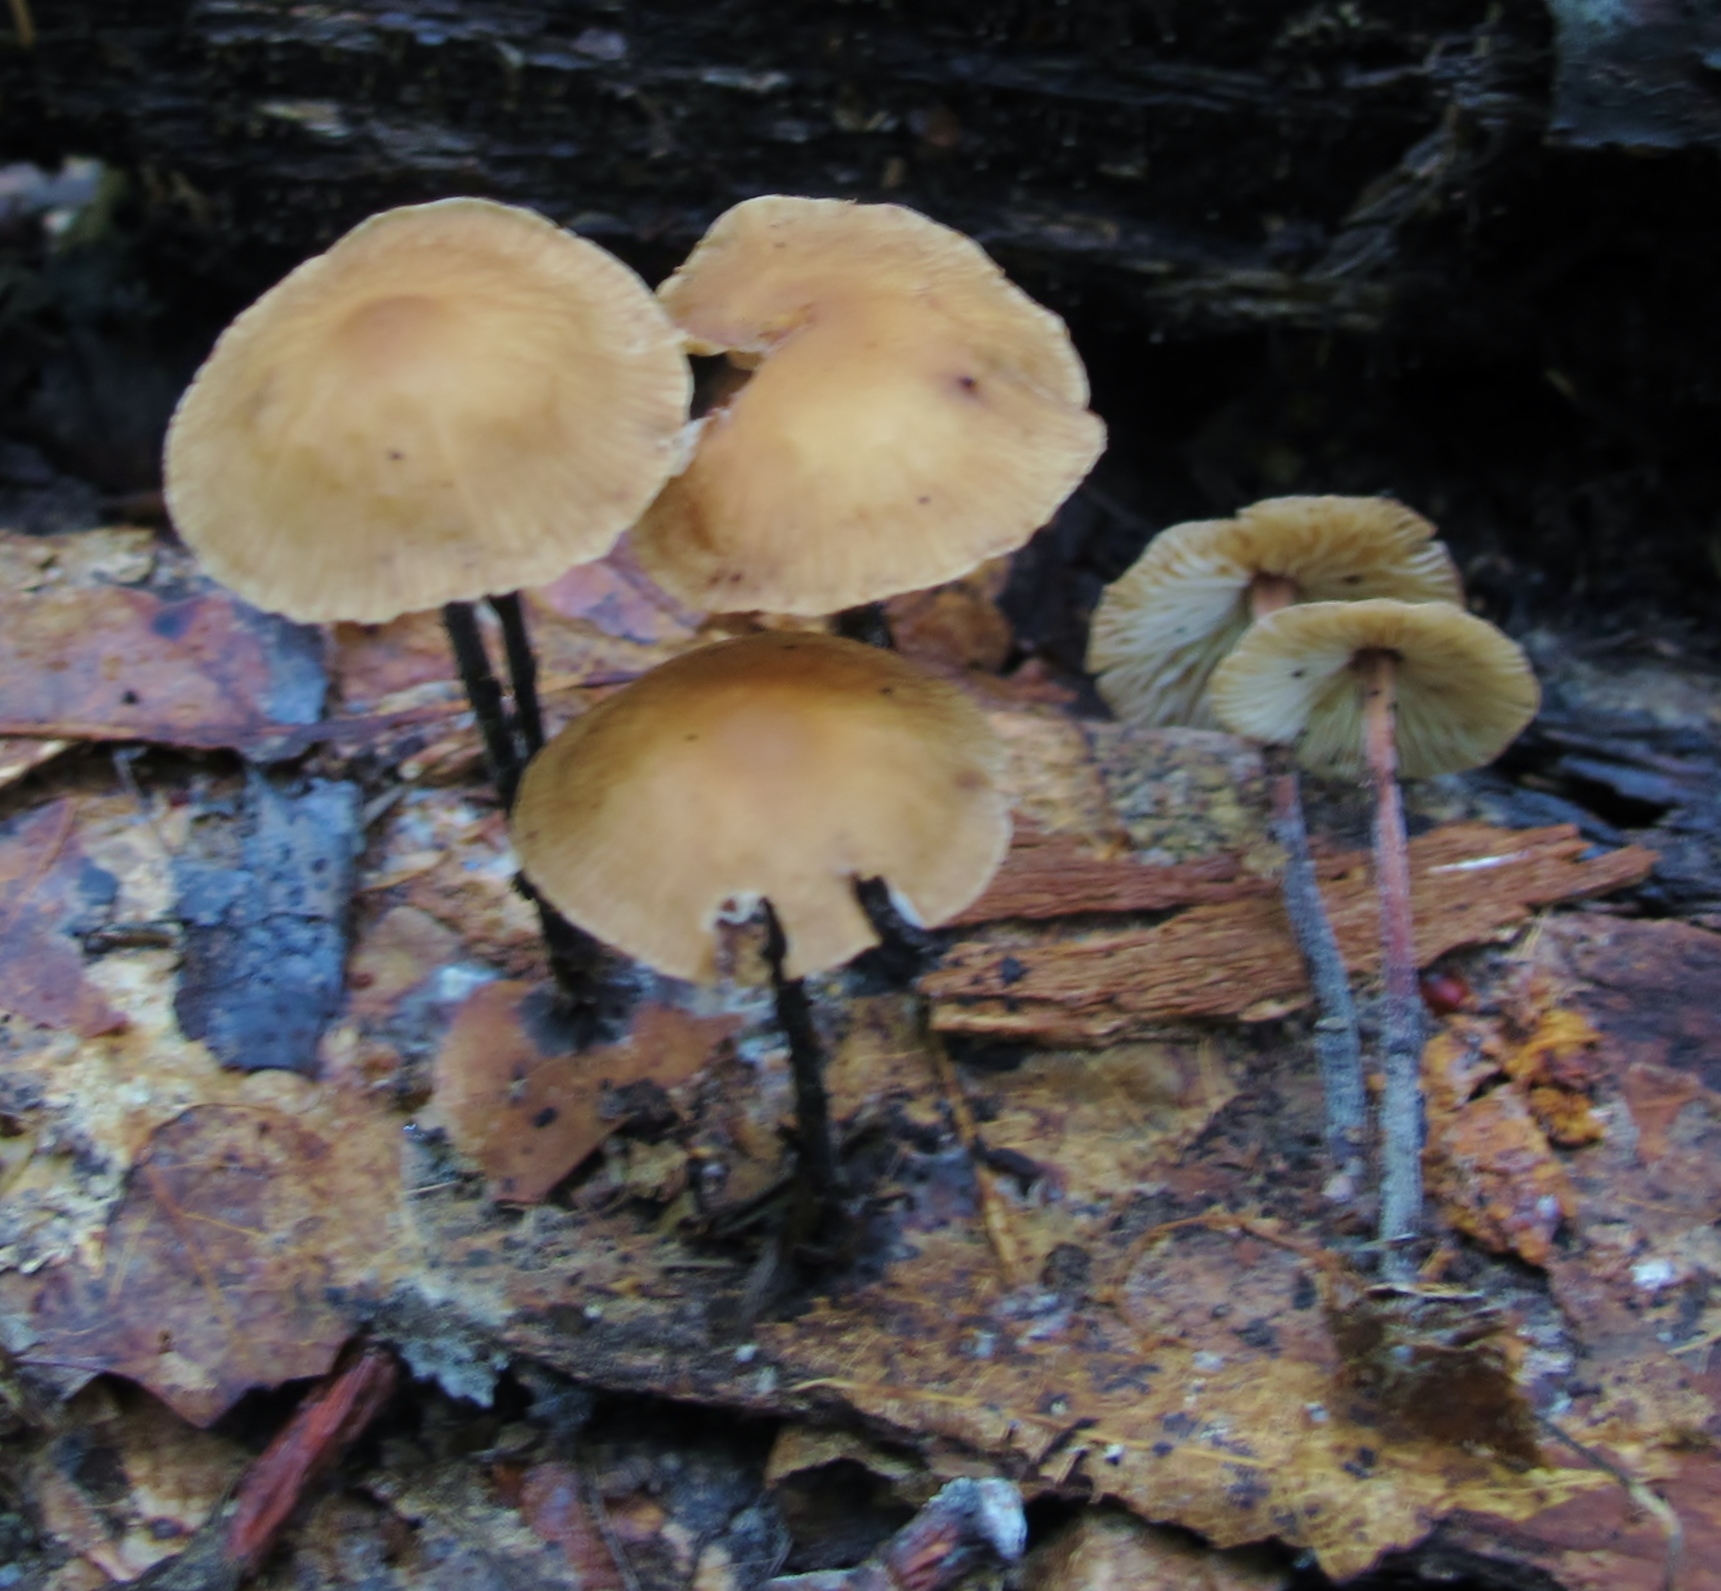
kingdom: Fungi
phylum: Basidiomycota
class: Agaricomycetes
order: Agaricales
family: Omphalotaceae
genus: Collybiopsis
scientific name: Collybiopsis subnuda
